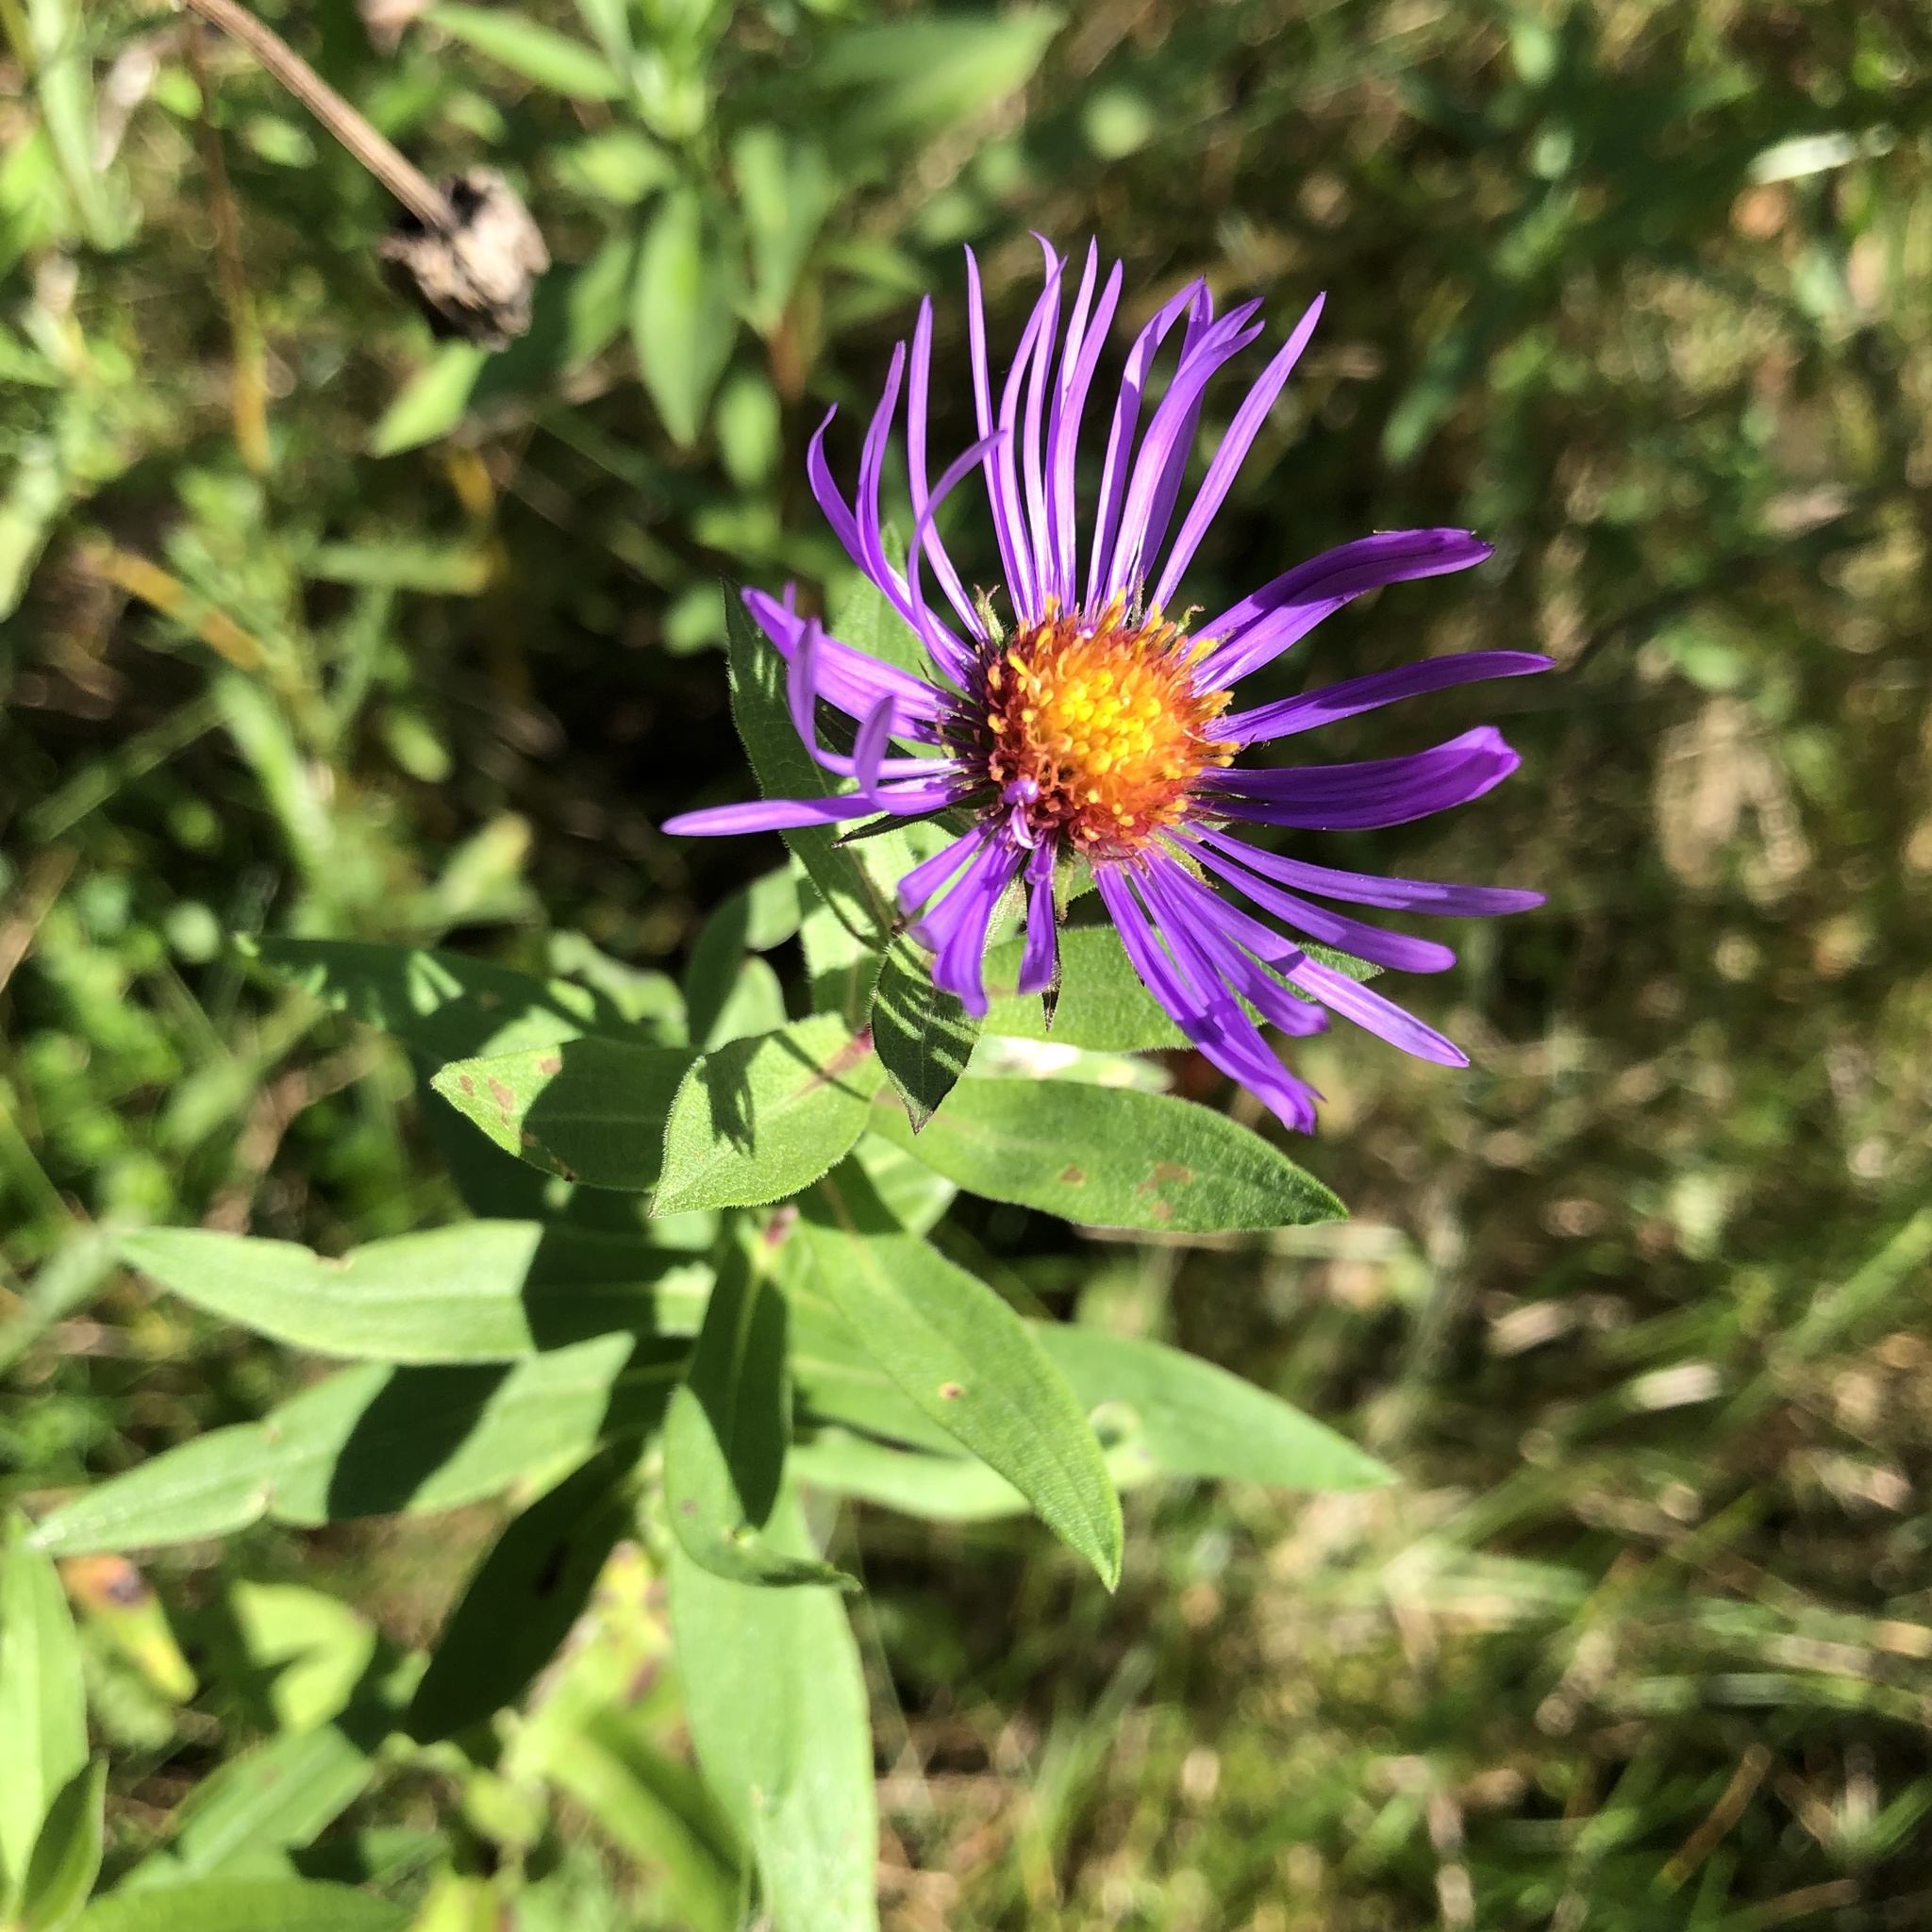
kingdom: Plantae
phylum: Tracheophyta
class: Magnoliopsida
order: Asterales
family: Asteraceae
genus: Symphyotrichum
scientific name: Symphyotrichum novae-angliae
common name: Michaelmas daisy
